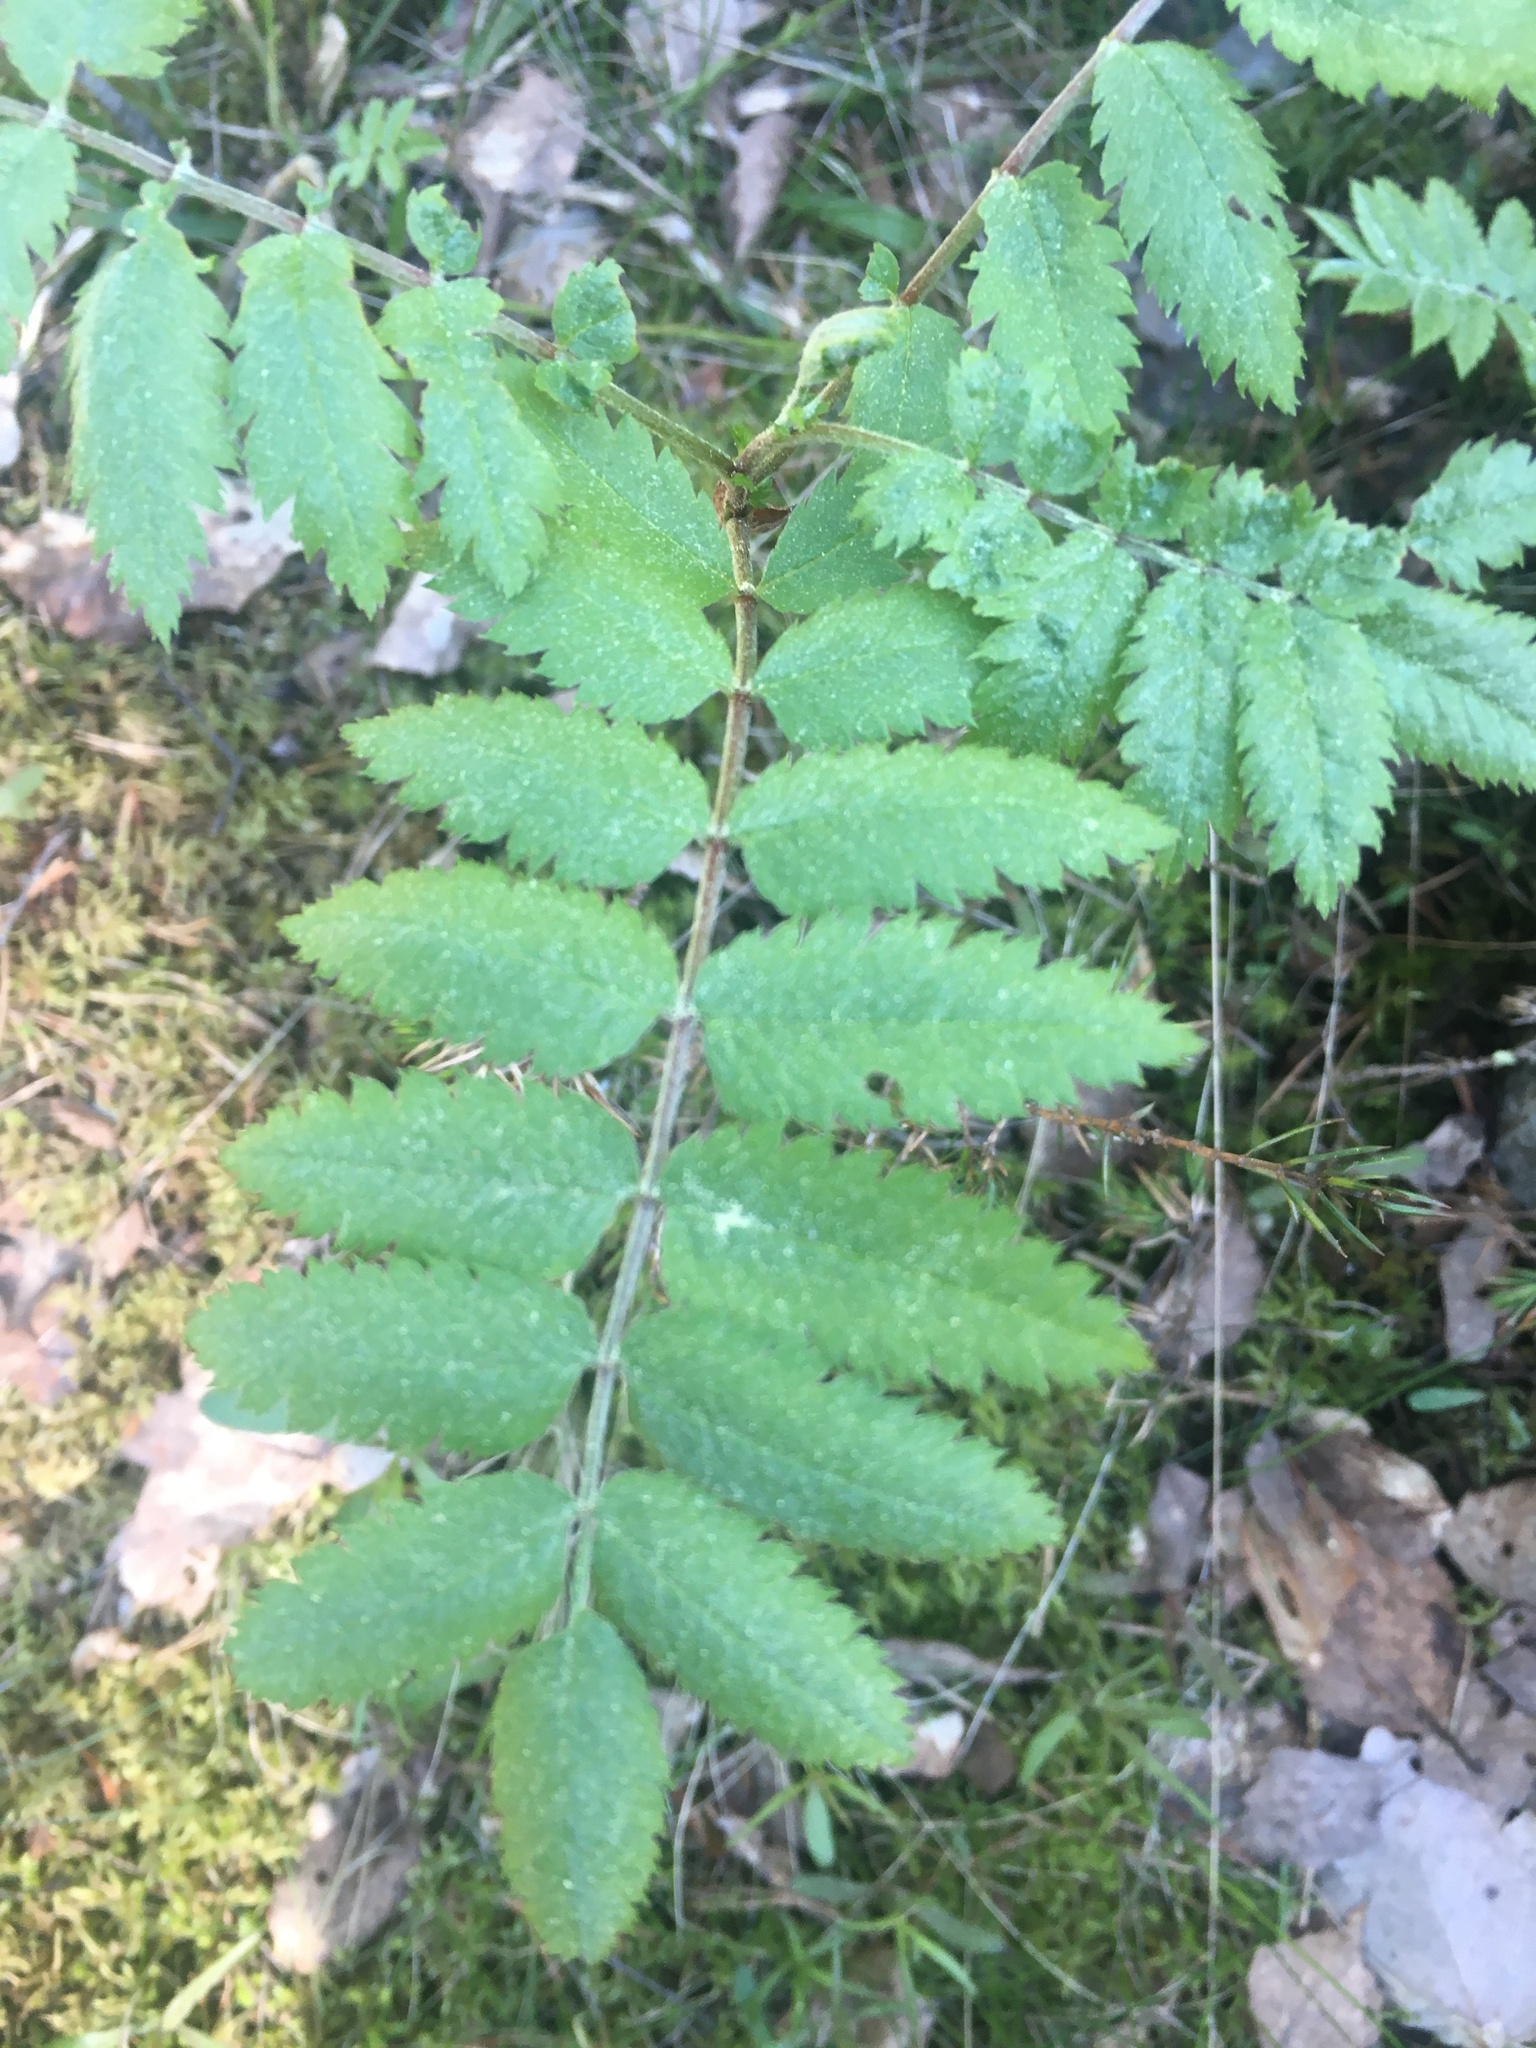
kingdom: Plantae
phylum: Tracheophyta
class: Magnoliopsida
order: Rosales
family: Rosaceae
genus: Sorbus
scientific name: Sorbus aucuparia
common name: Rowan
